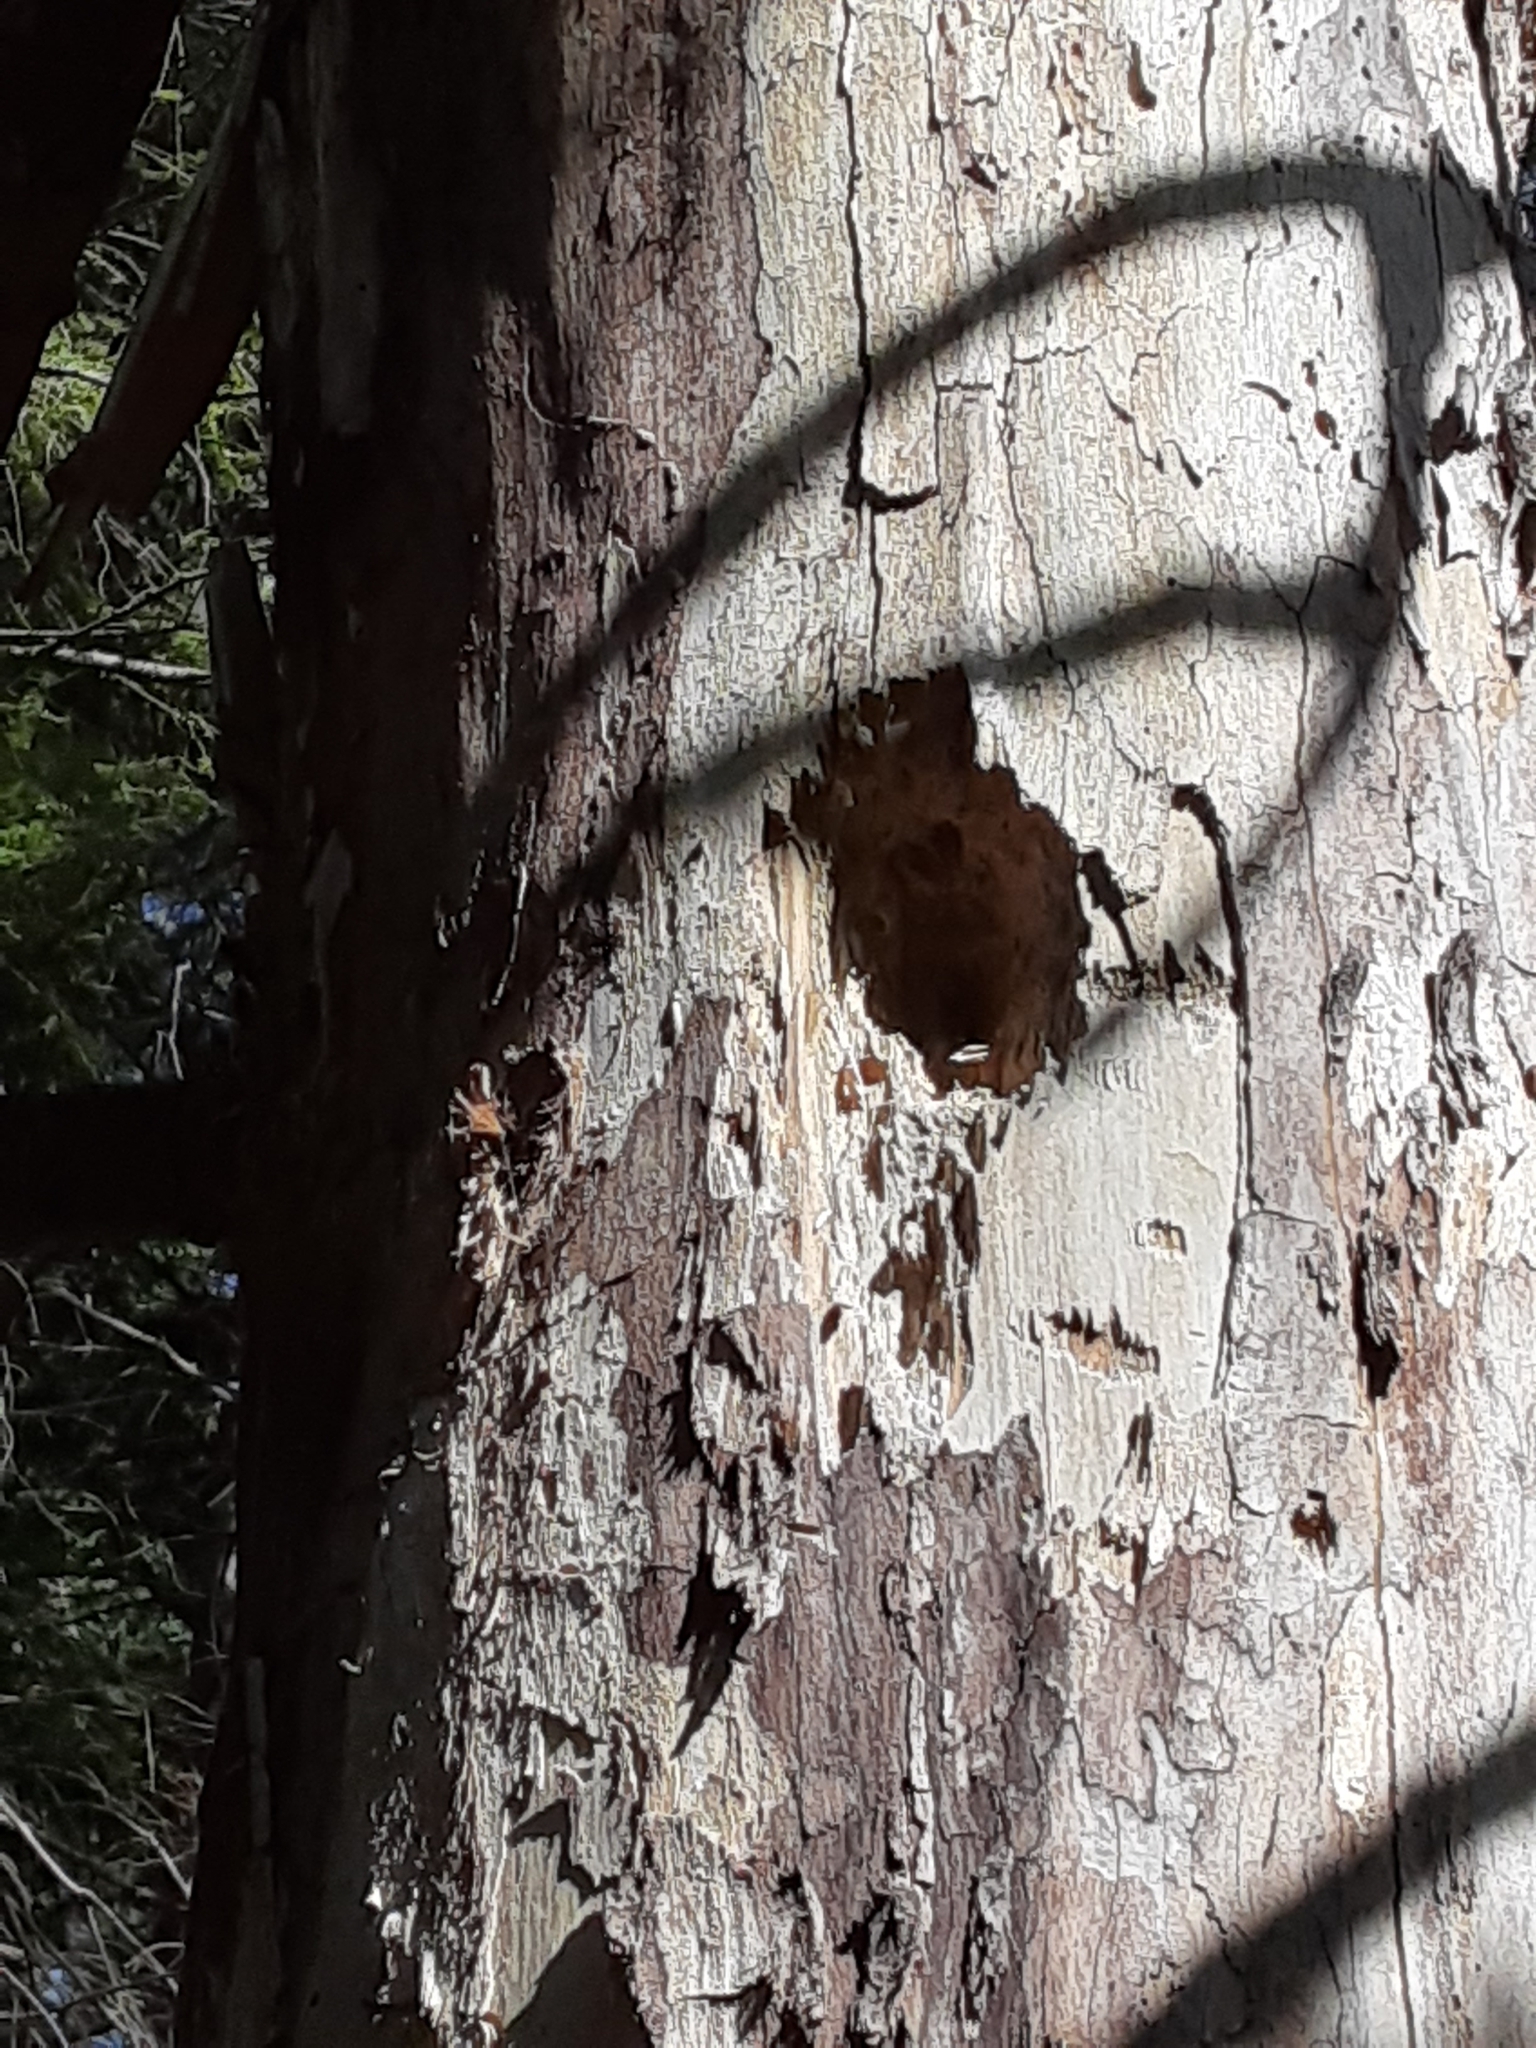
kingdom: Animalia
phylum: Chordata
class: Aves
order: Piciformes
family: Picidae
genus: Dryocopus
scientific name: Dryocopus pileatus
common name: Pileated woodpecker
